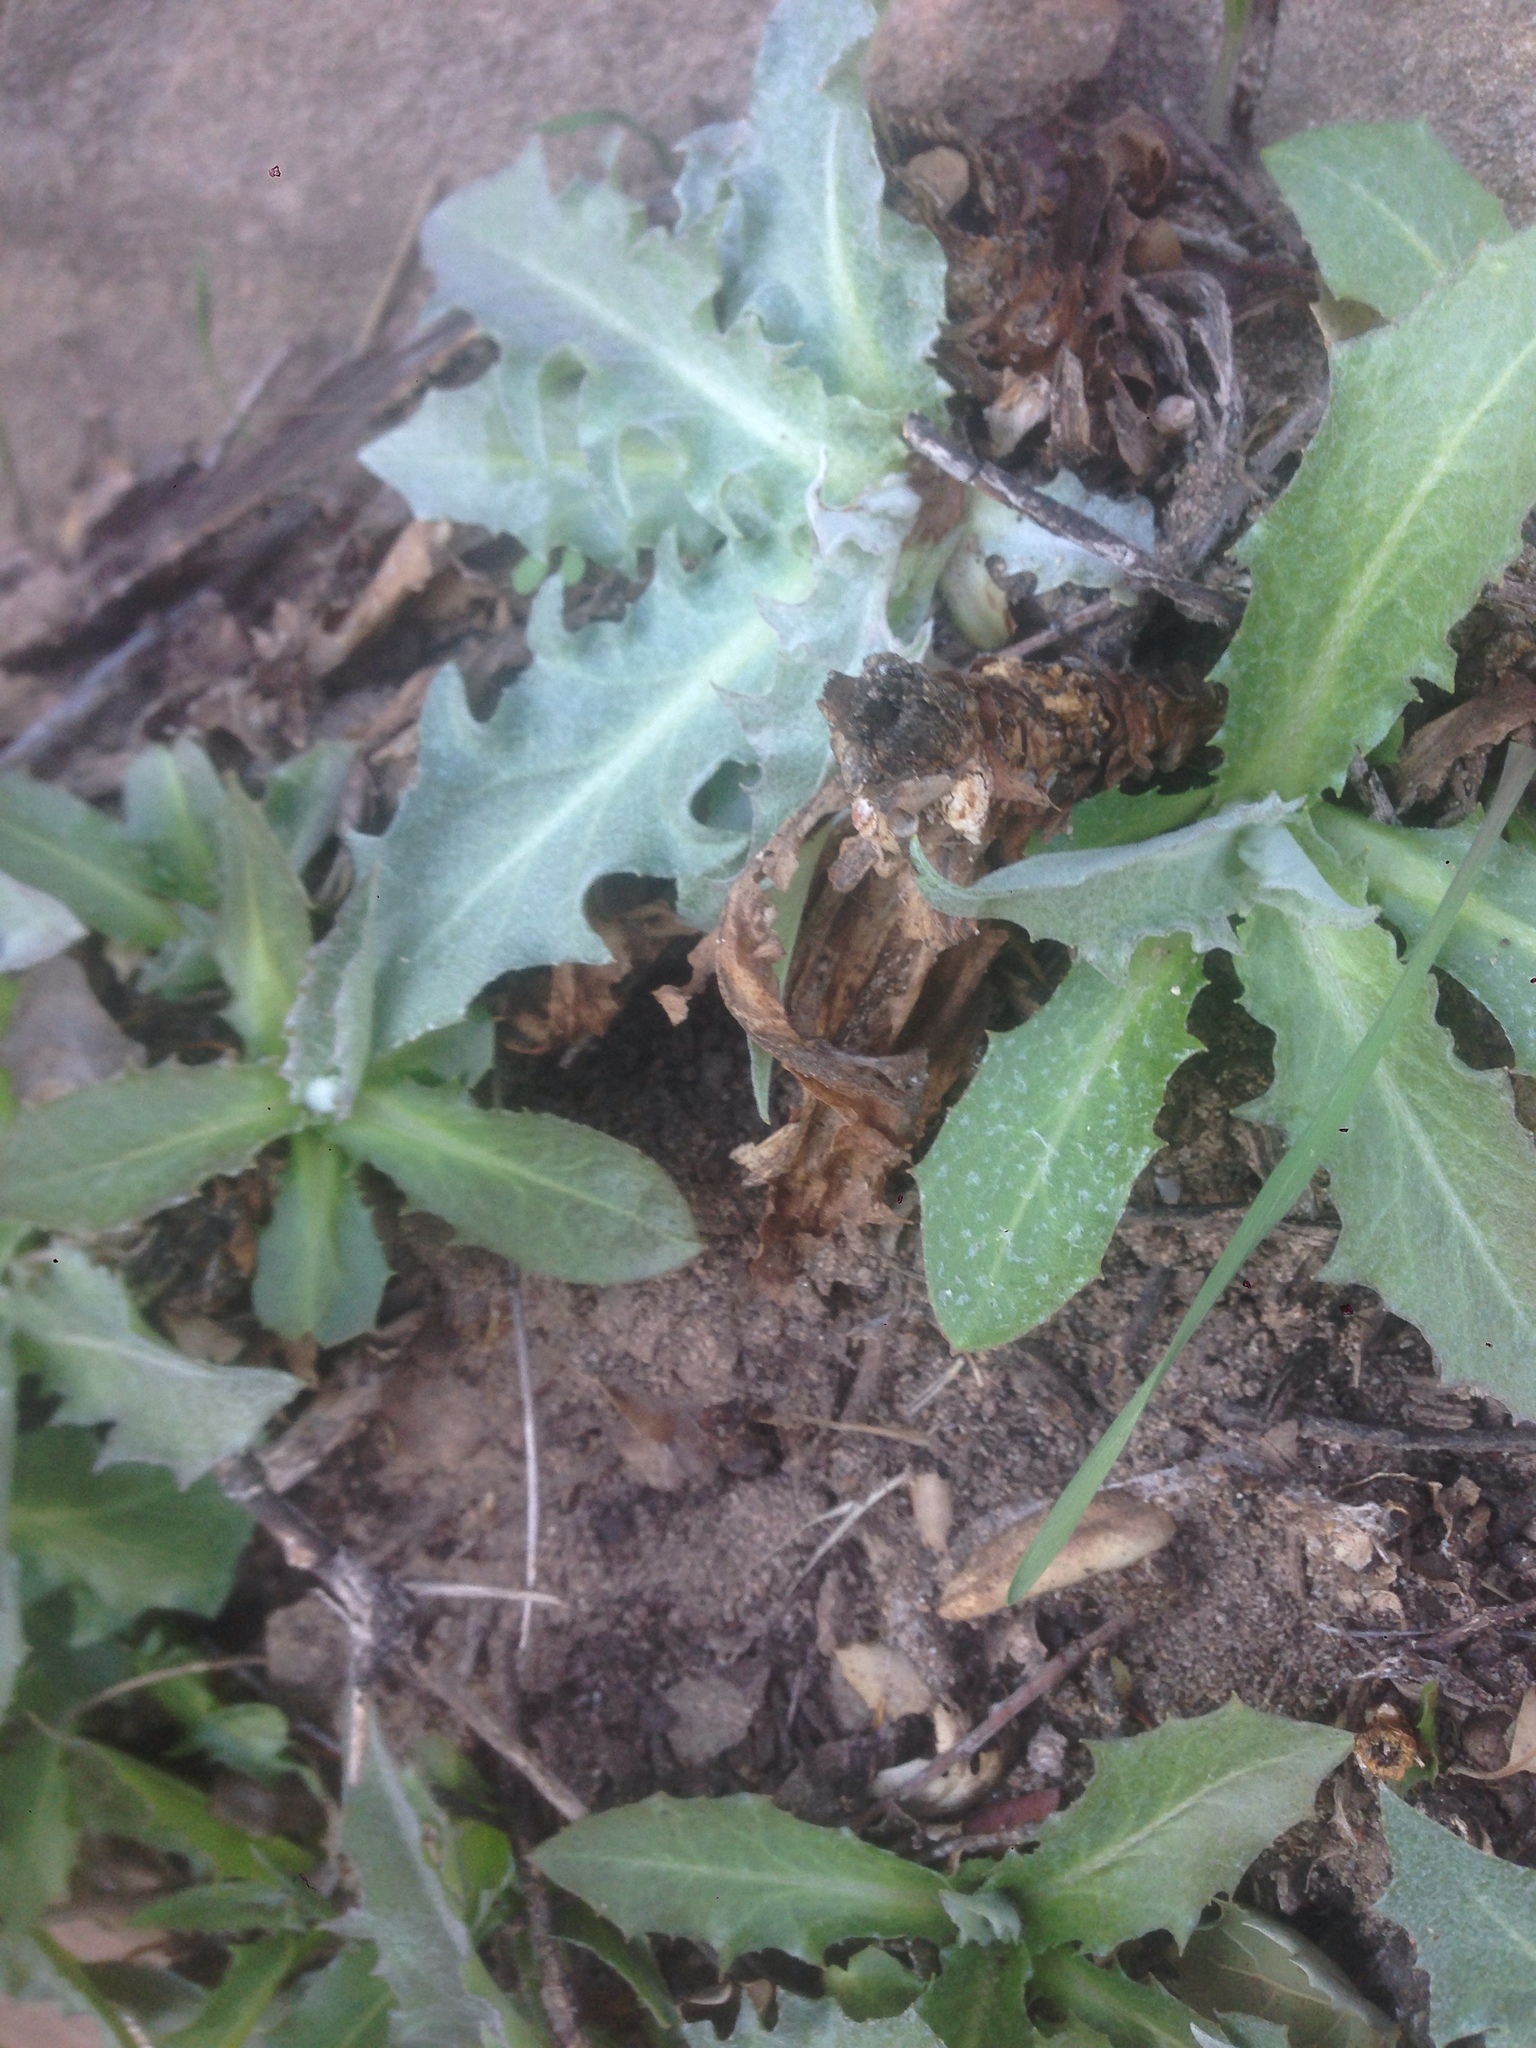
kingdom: Plantae
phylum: Tracheophyta
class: Magnoliopsida
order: Asterales
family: Asteraceae
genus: Stephanomeria
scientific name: Stephanomeria cichoriacea
